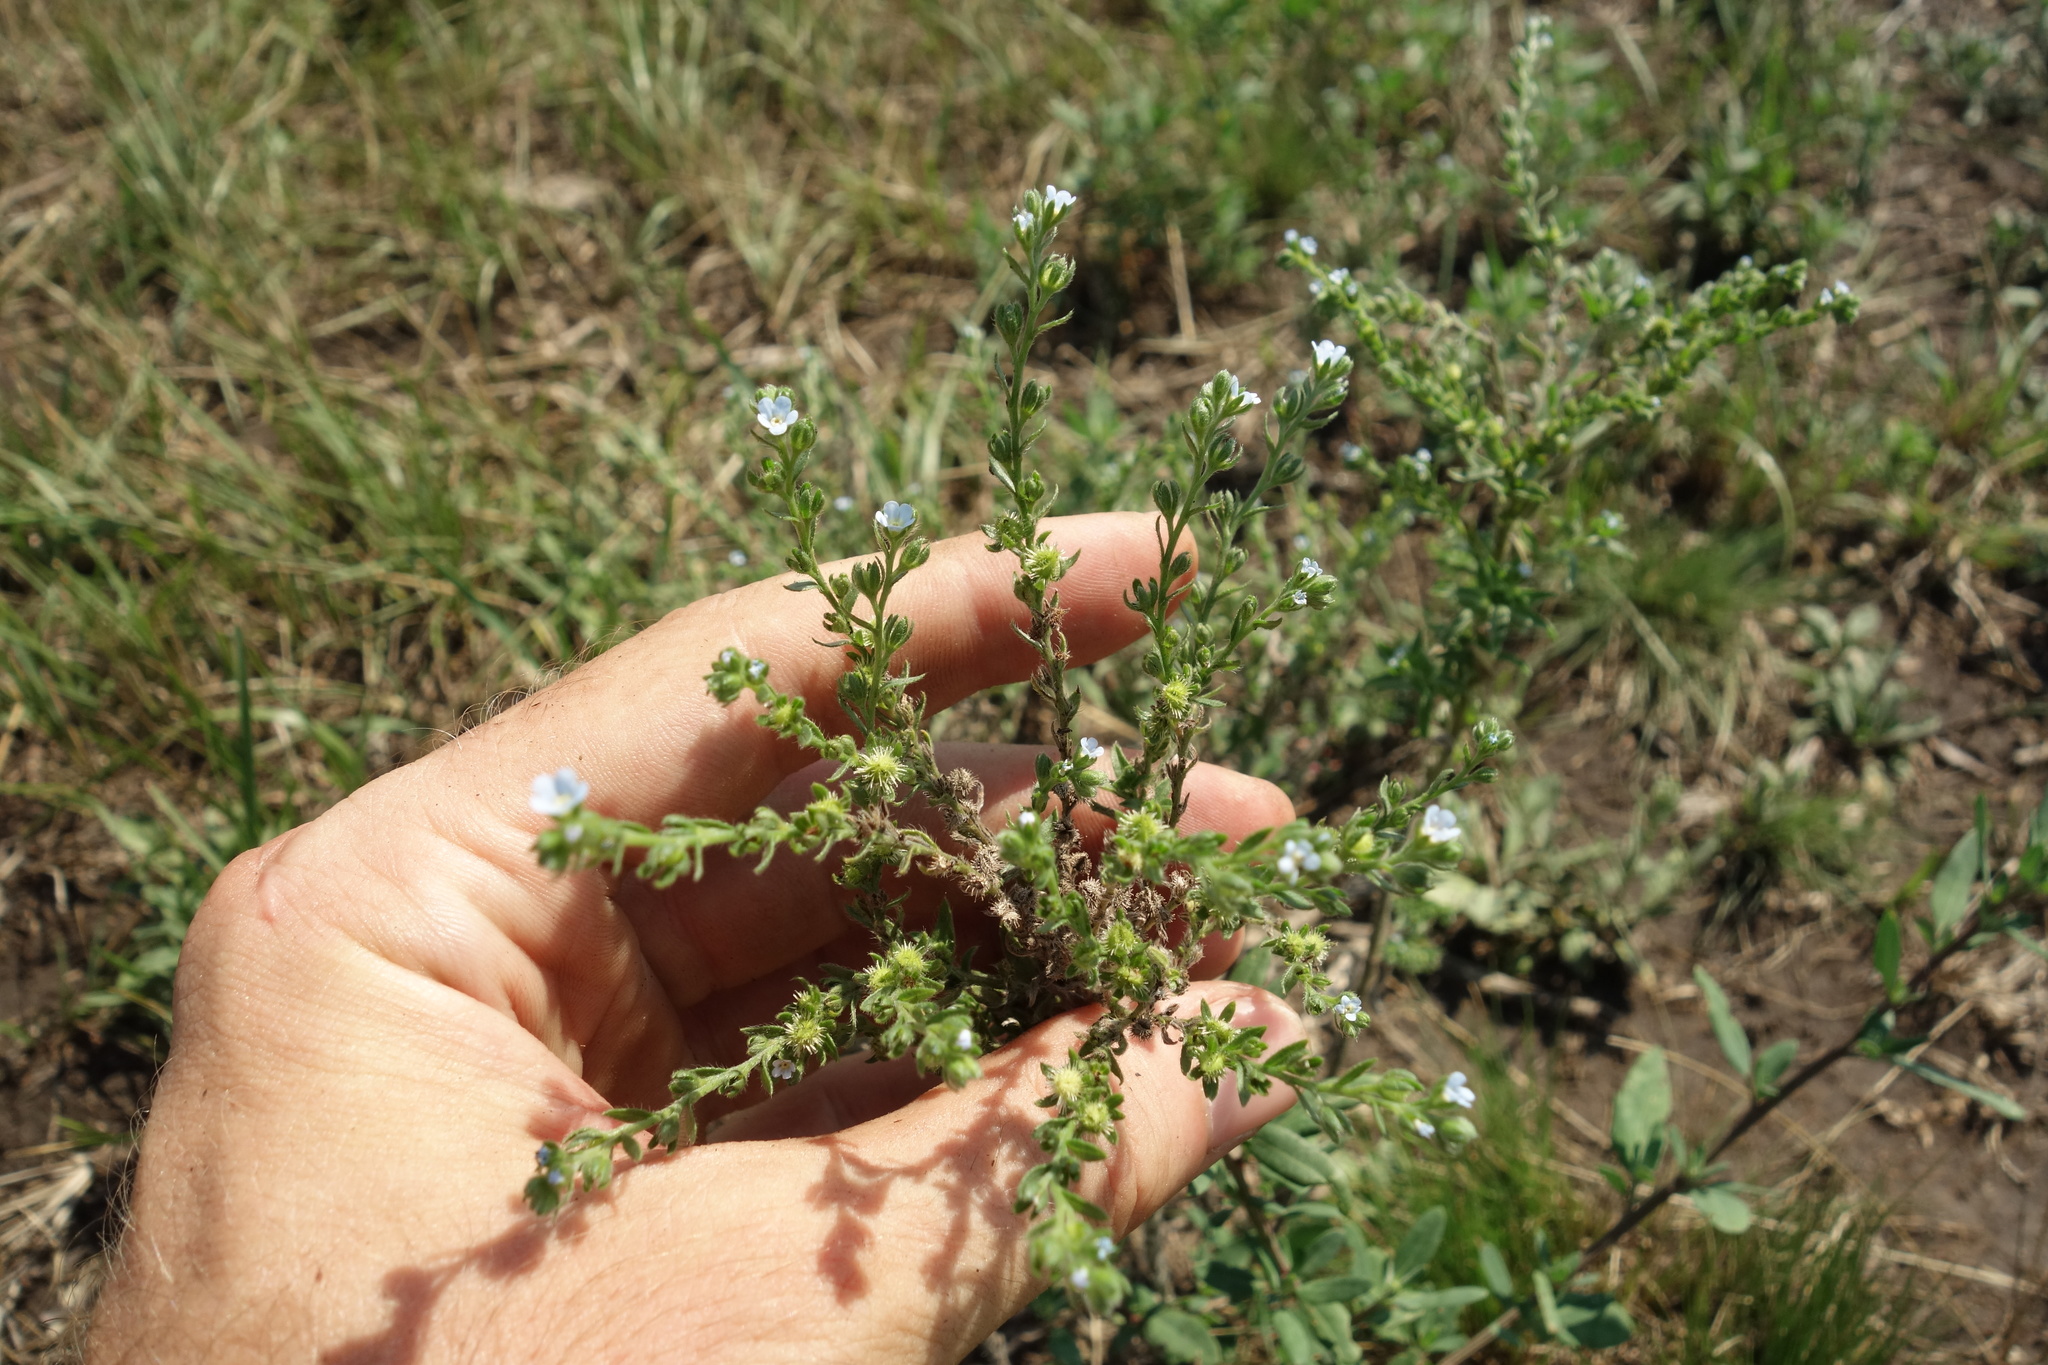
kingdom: Plantae
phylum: Tracheophyta
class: Magnoliopsida
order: Boraginales
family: Boraginaceae
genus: Lappula
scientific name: Lappula squarrosa
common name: European stickseed
